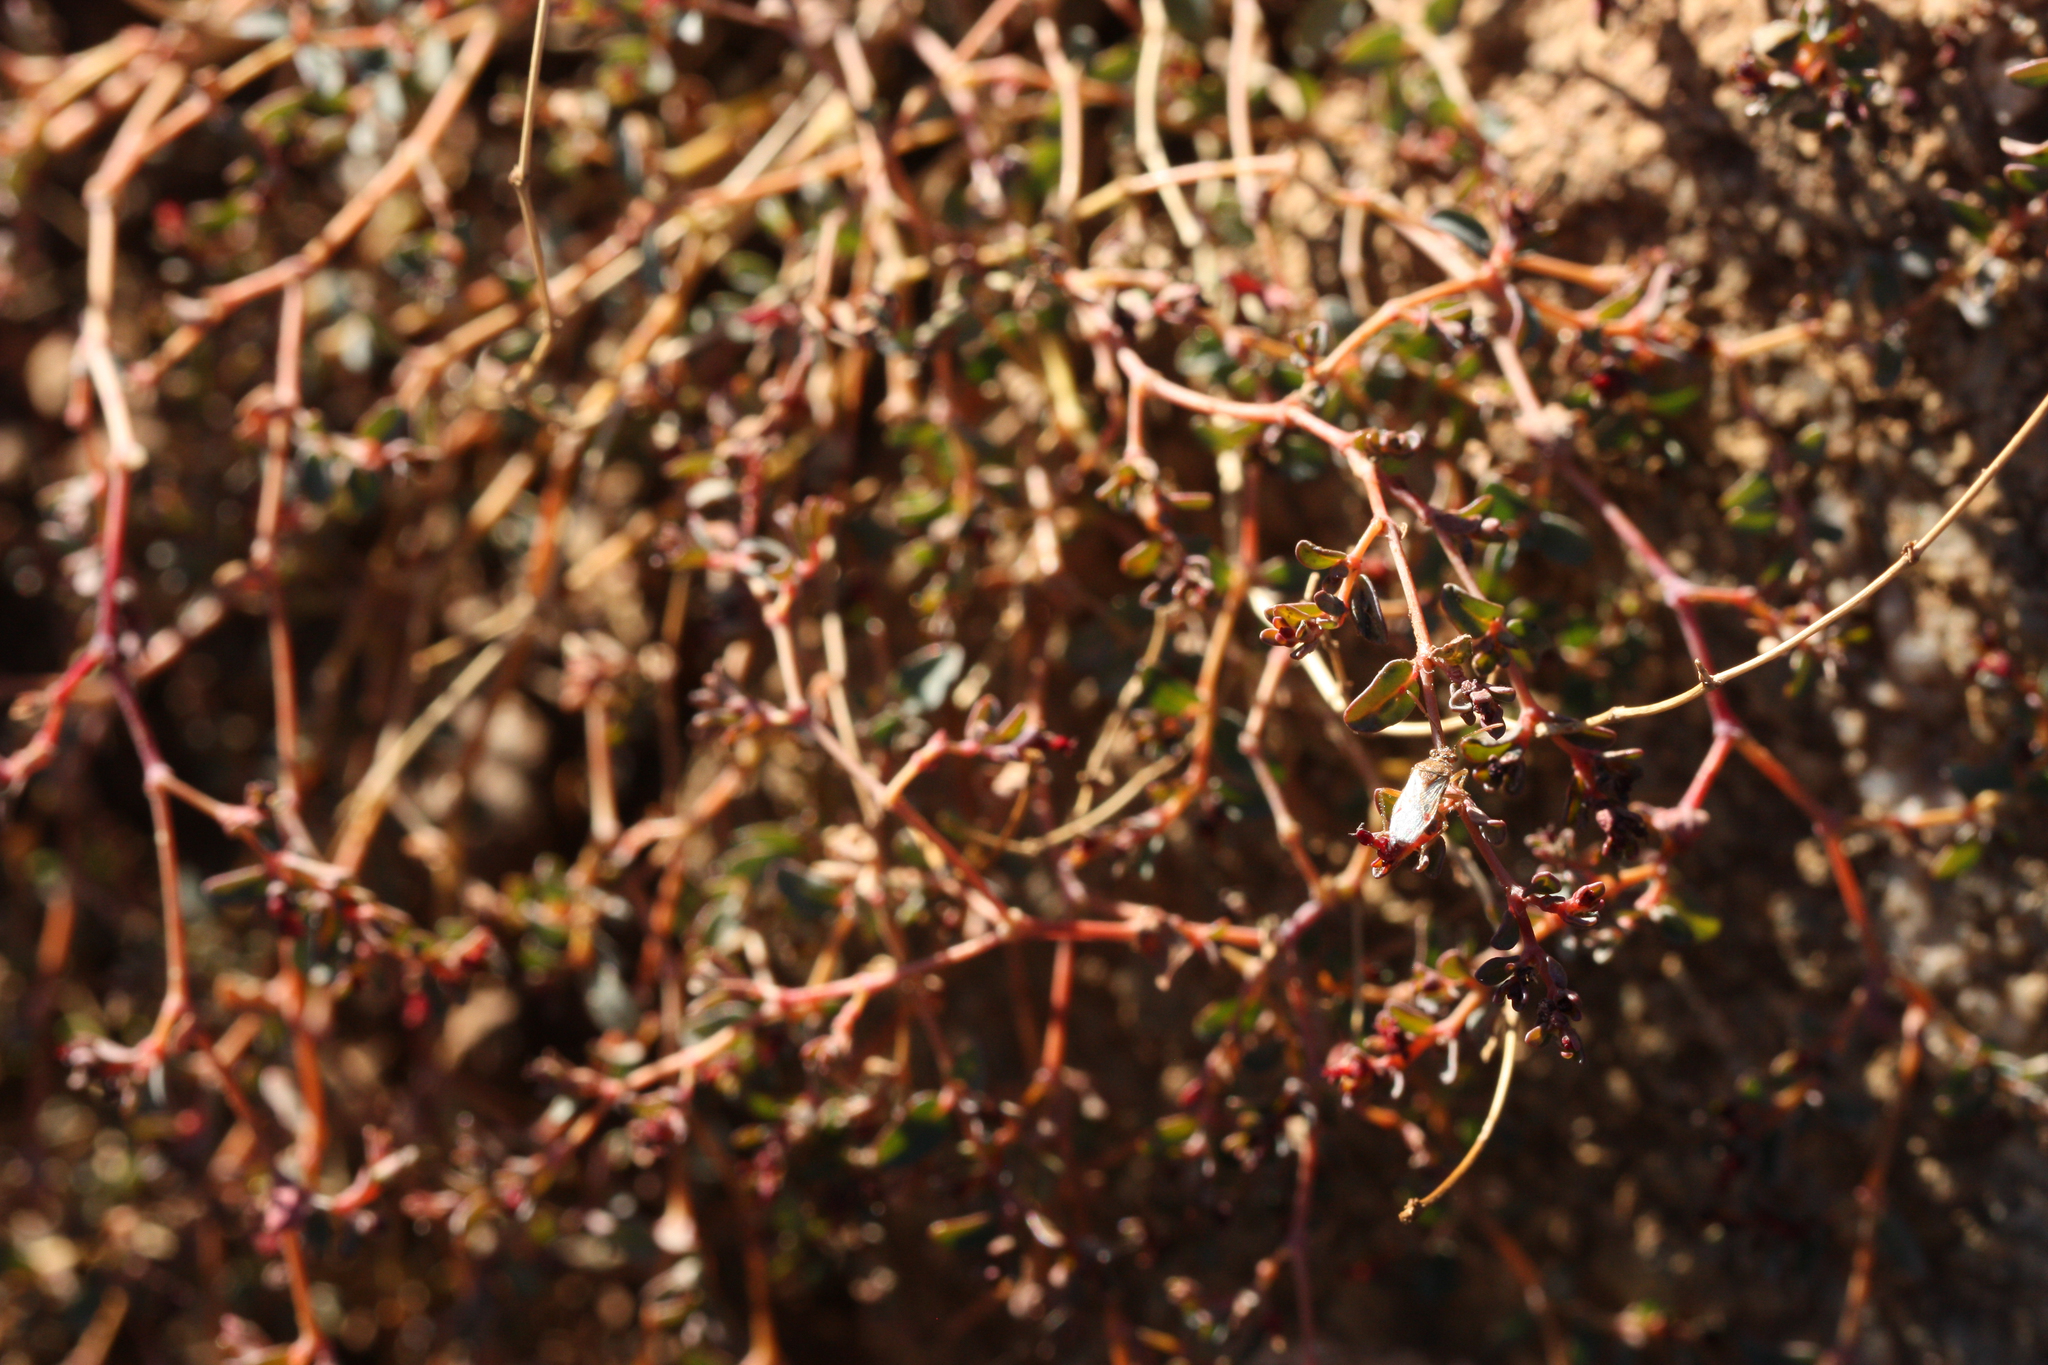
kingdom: Plantae
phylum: Tracheophyta
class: Magnoliopsida
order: Malpighiales
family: Euphorbiaceae
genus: Euphorbia
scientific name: Euphorbia polycarpa
